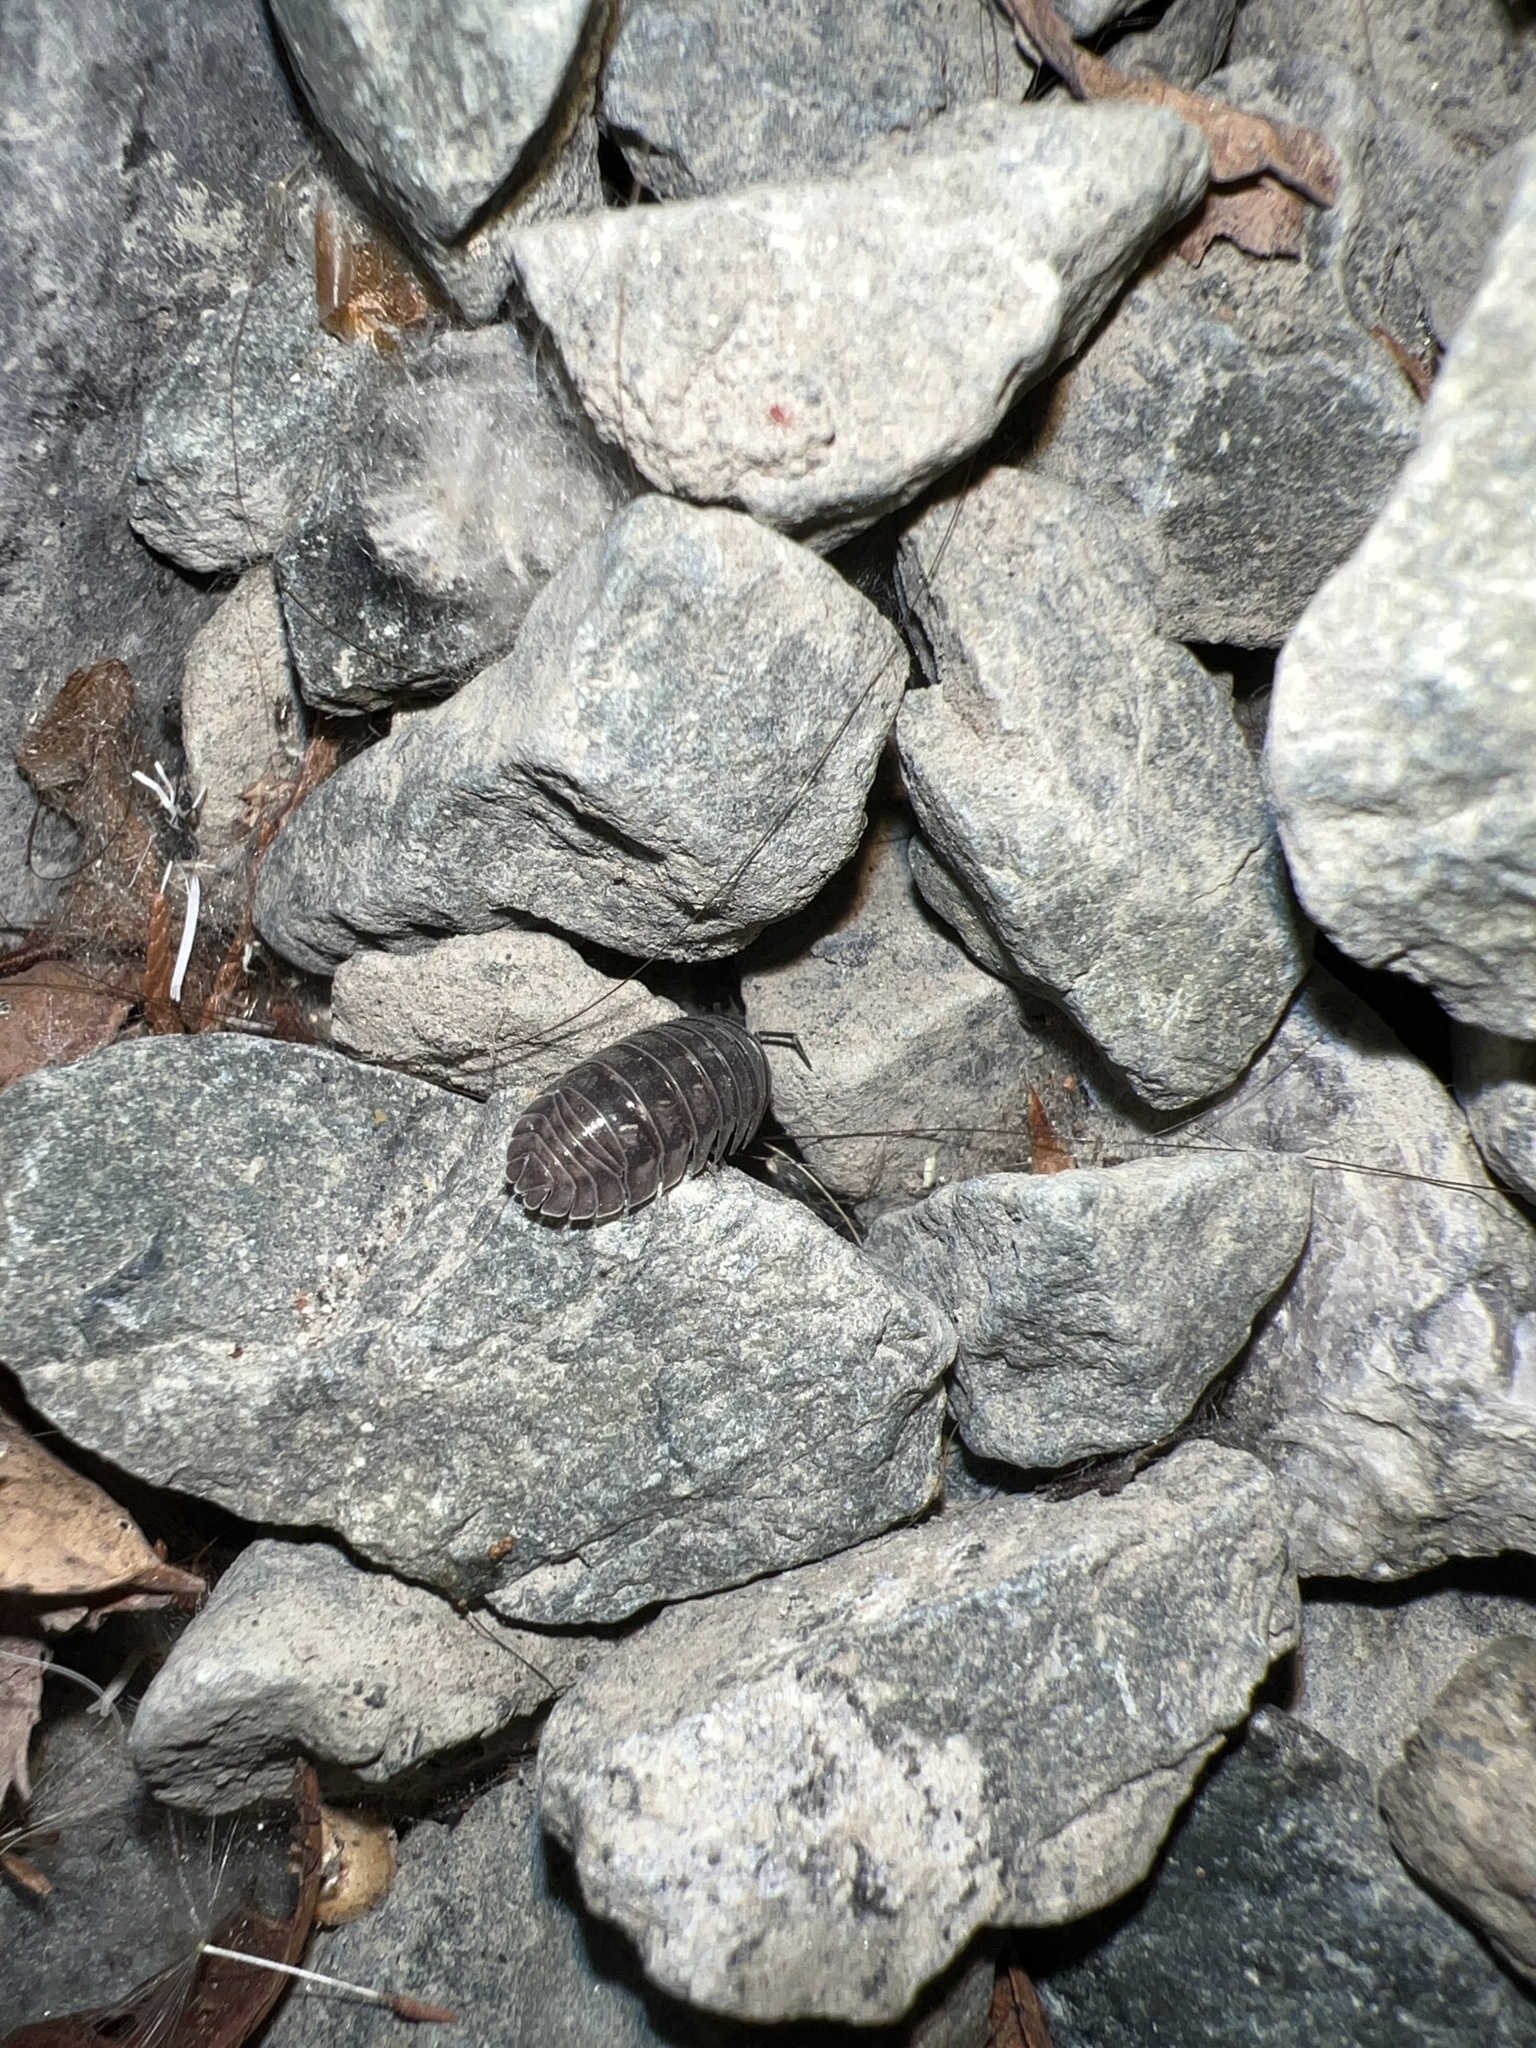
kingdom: Animalia
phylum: Arthropoda
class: Malacostraca
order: Isopoda
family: Armadillidiidae
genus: Armadillidium
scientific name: Armadillidium nasatum
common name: Isopod
